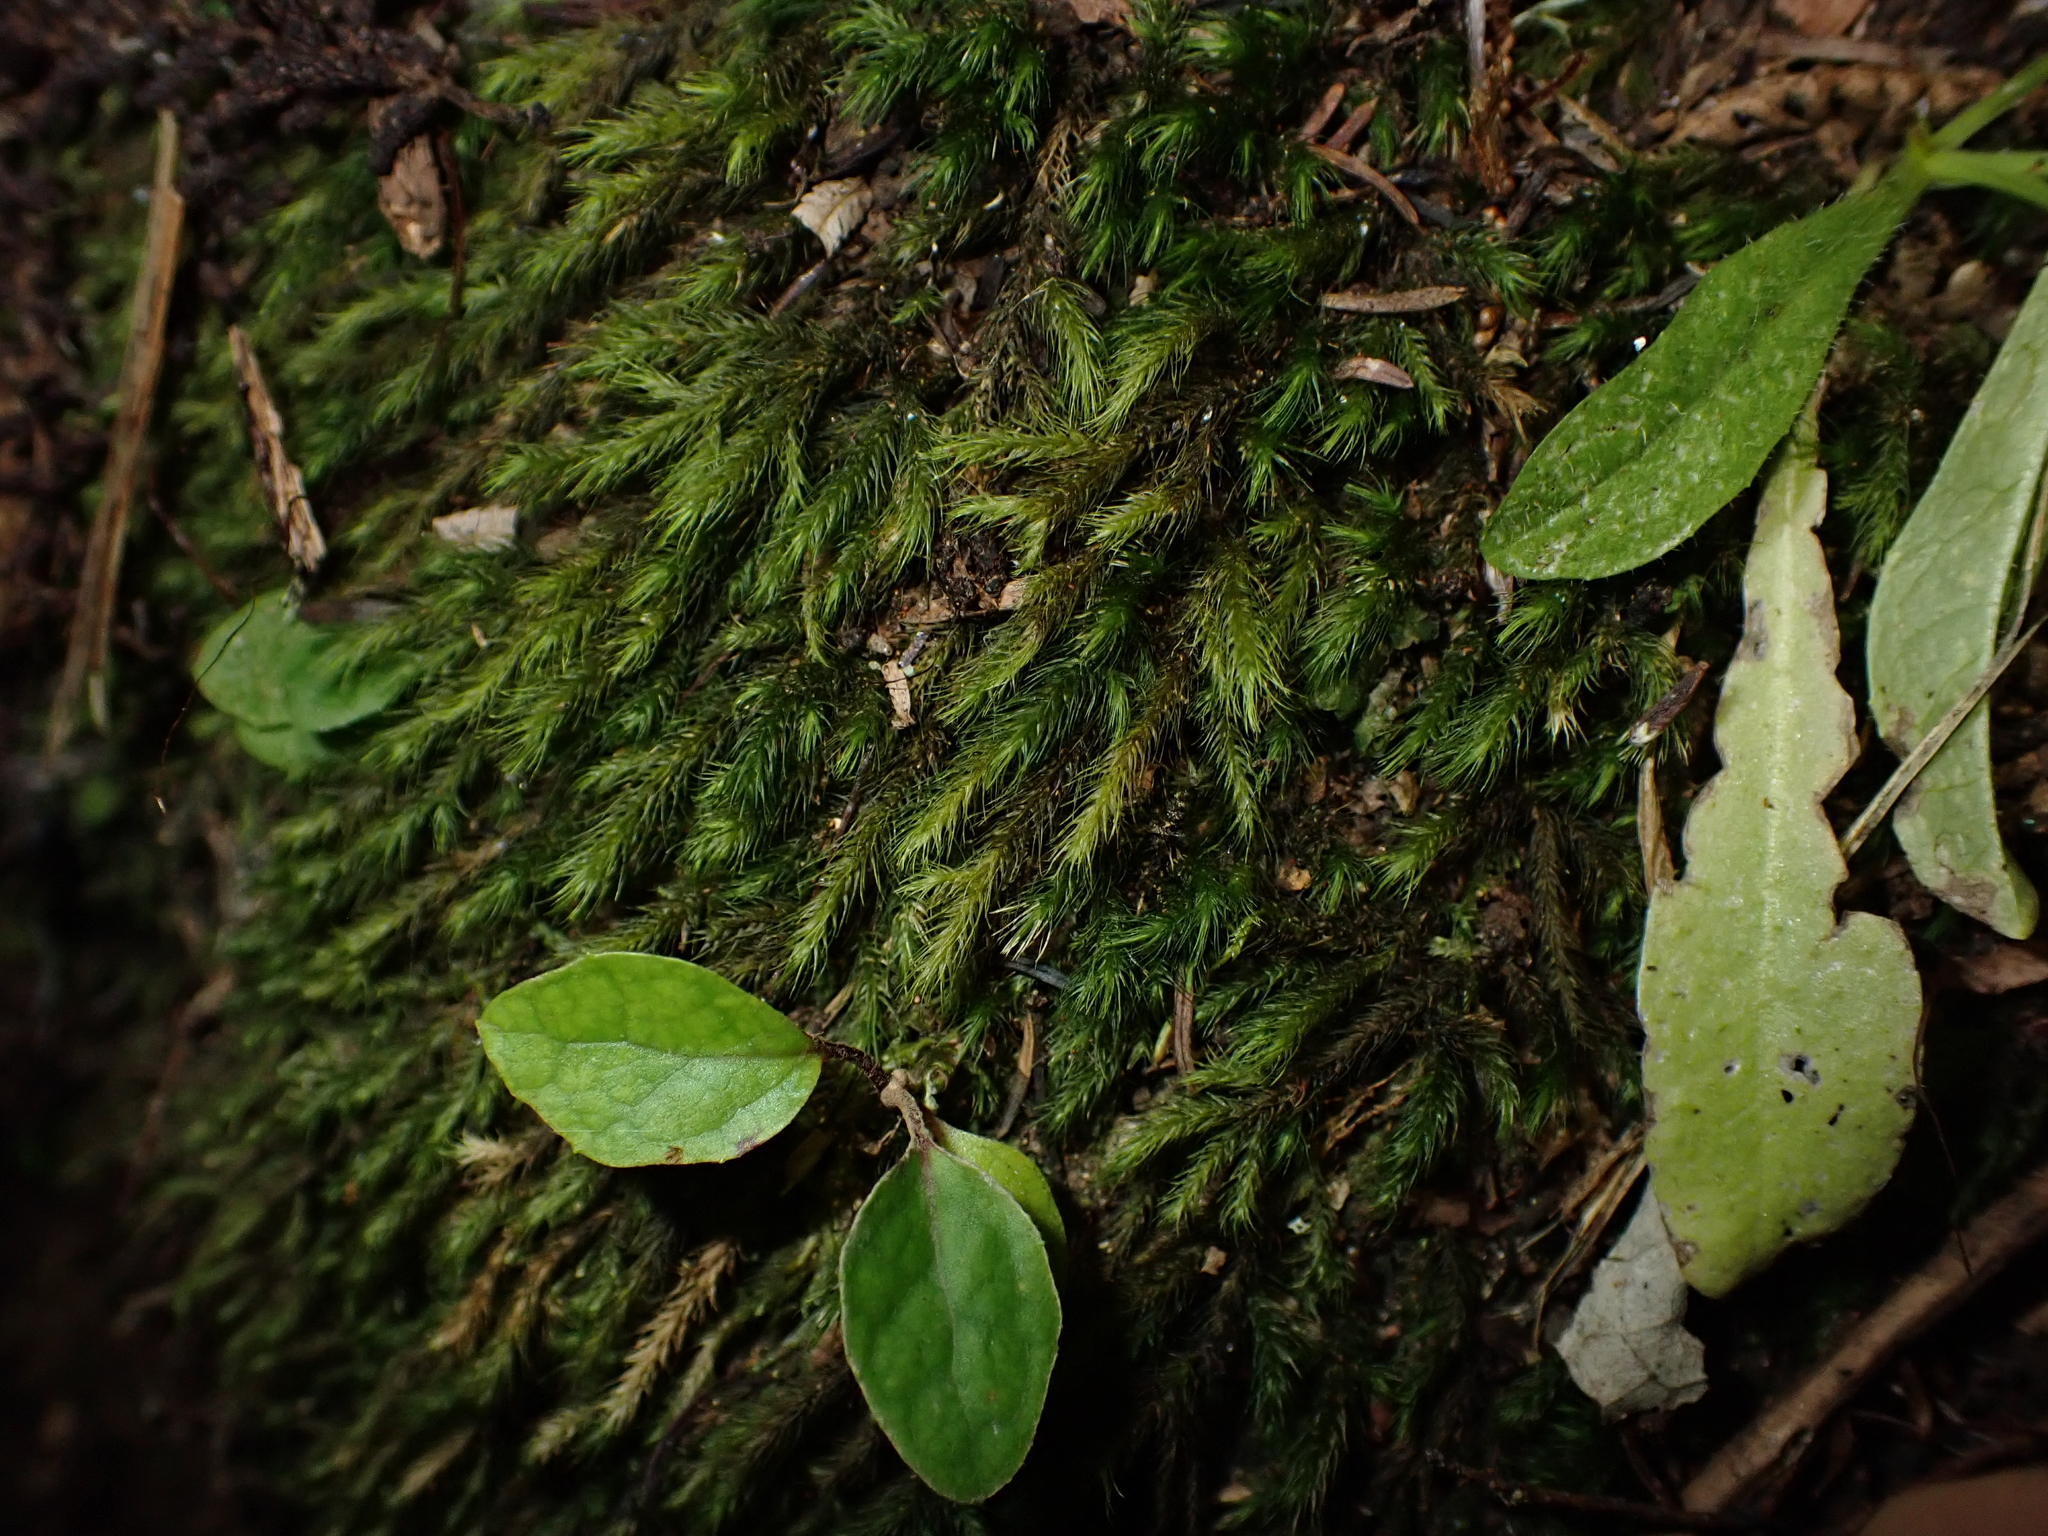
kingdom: Plantae
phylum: Bryophyta
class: Bryopsida
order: Hypnales
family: Neckeraceae
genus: Echinodiopsis
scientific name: Echinodiopsis hispida
